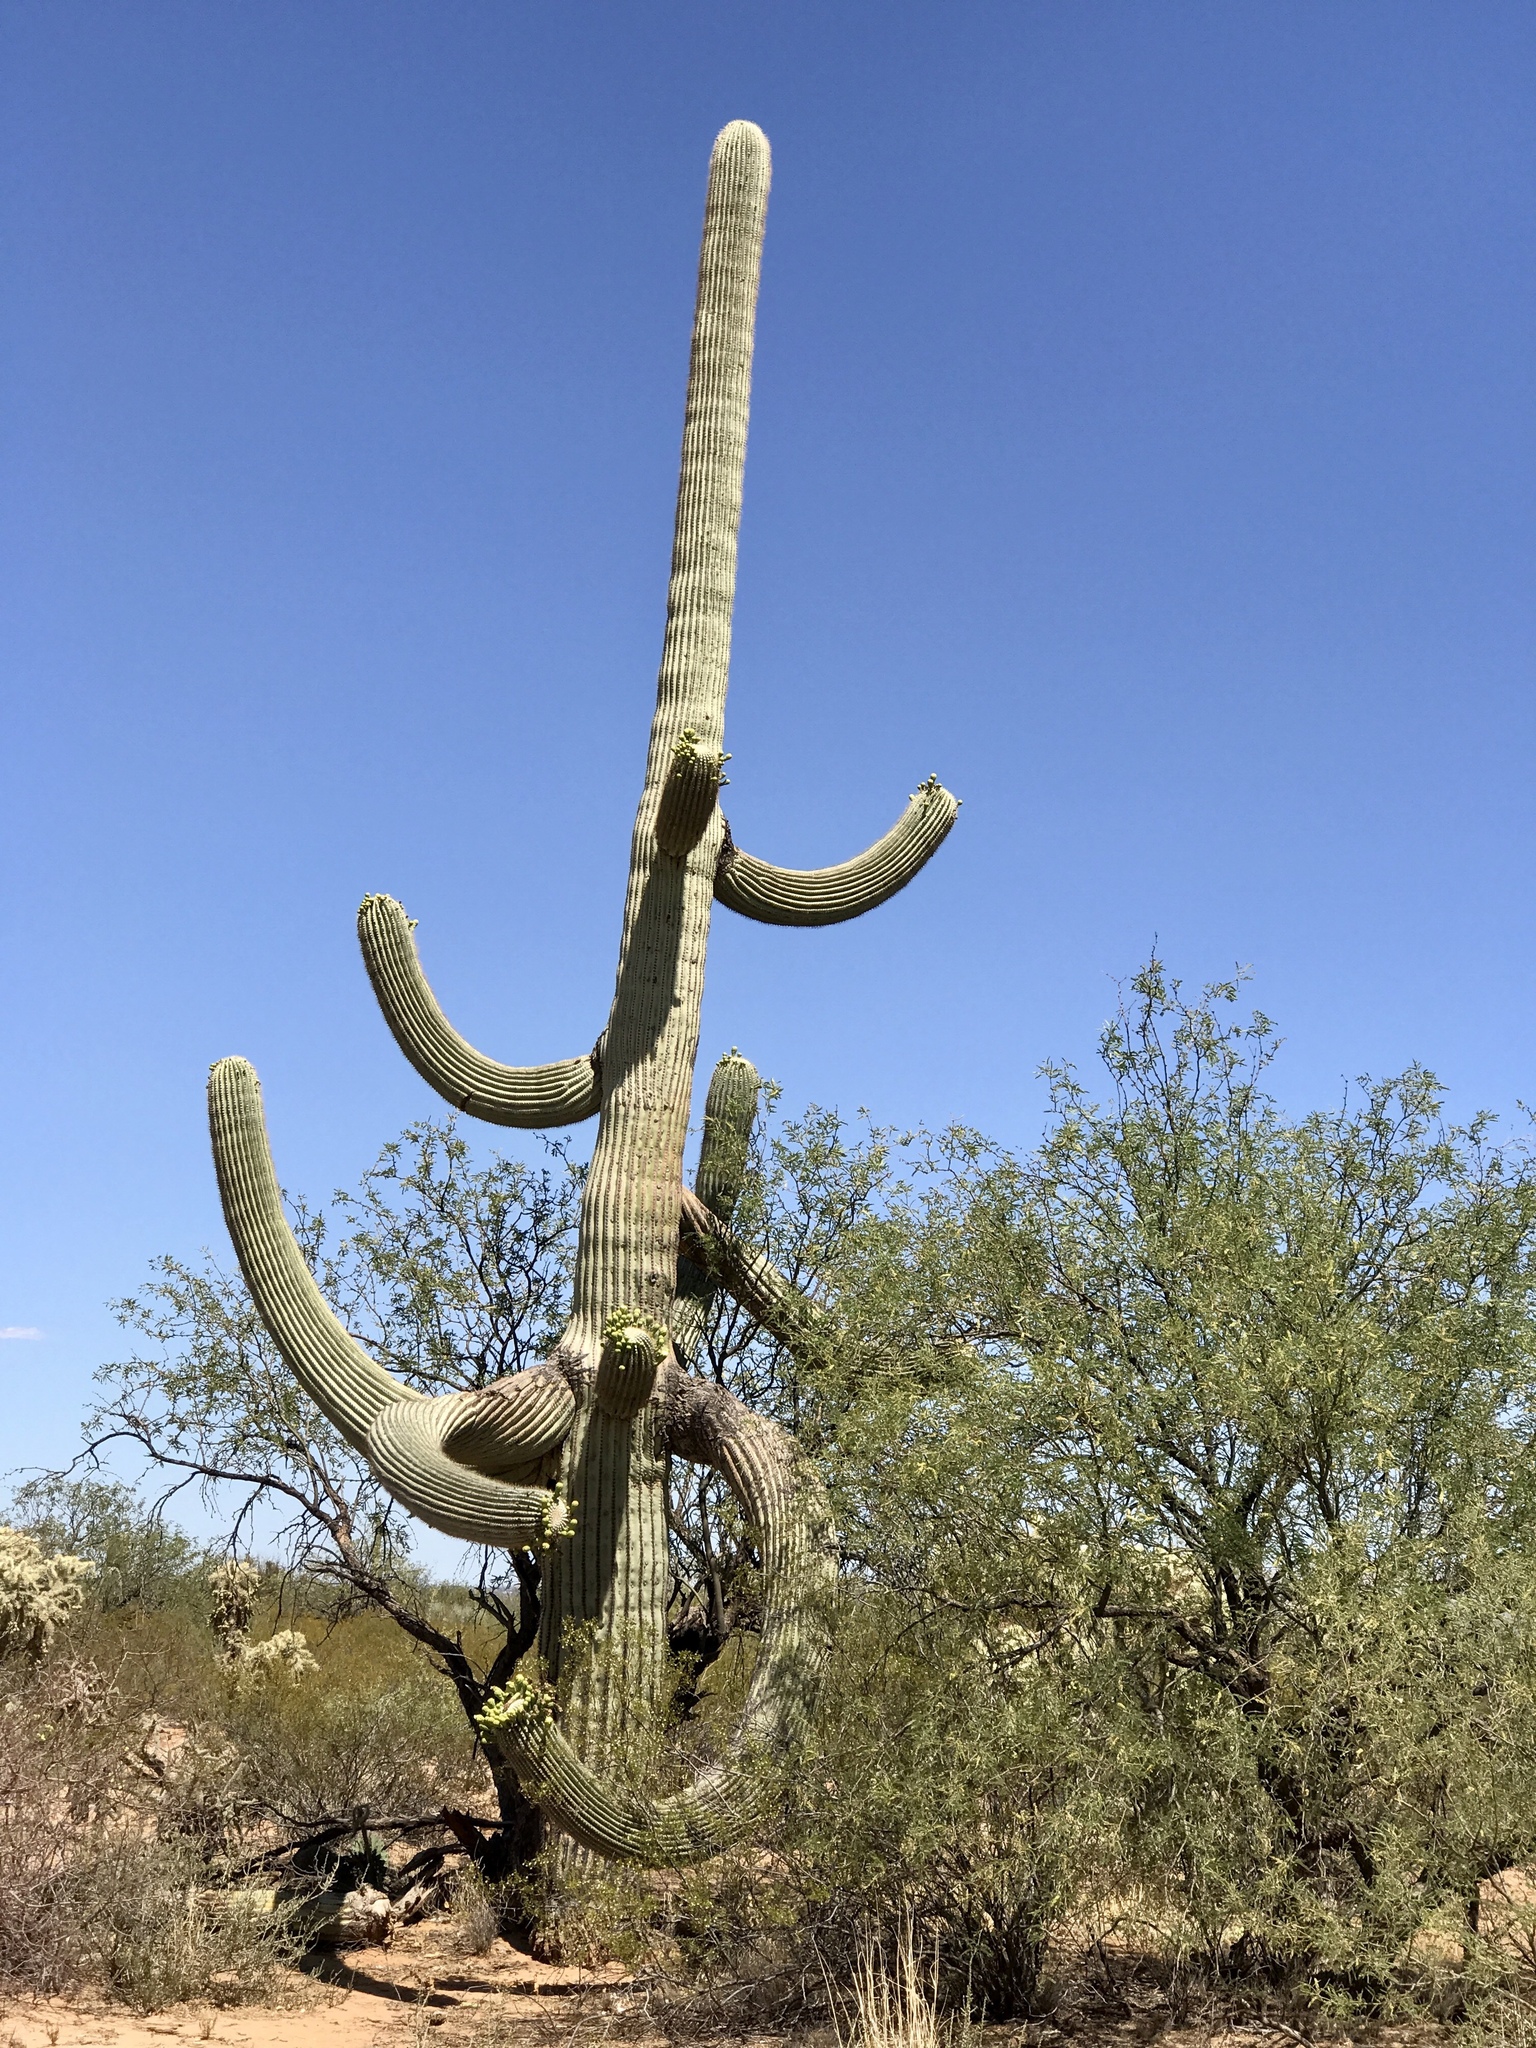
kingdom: Plantae
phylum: Tracheophyta
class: Magnoliopsida
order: Caryophyllales
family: Cactaceae
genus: Carnegiea
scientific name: Carnegiea gigantea
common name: Saguaro
